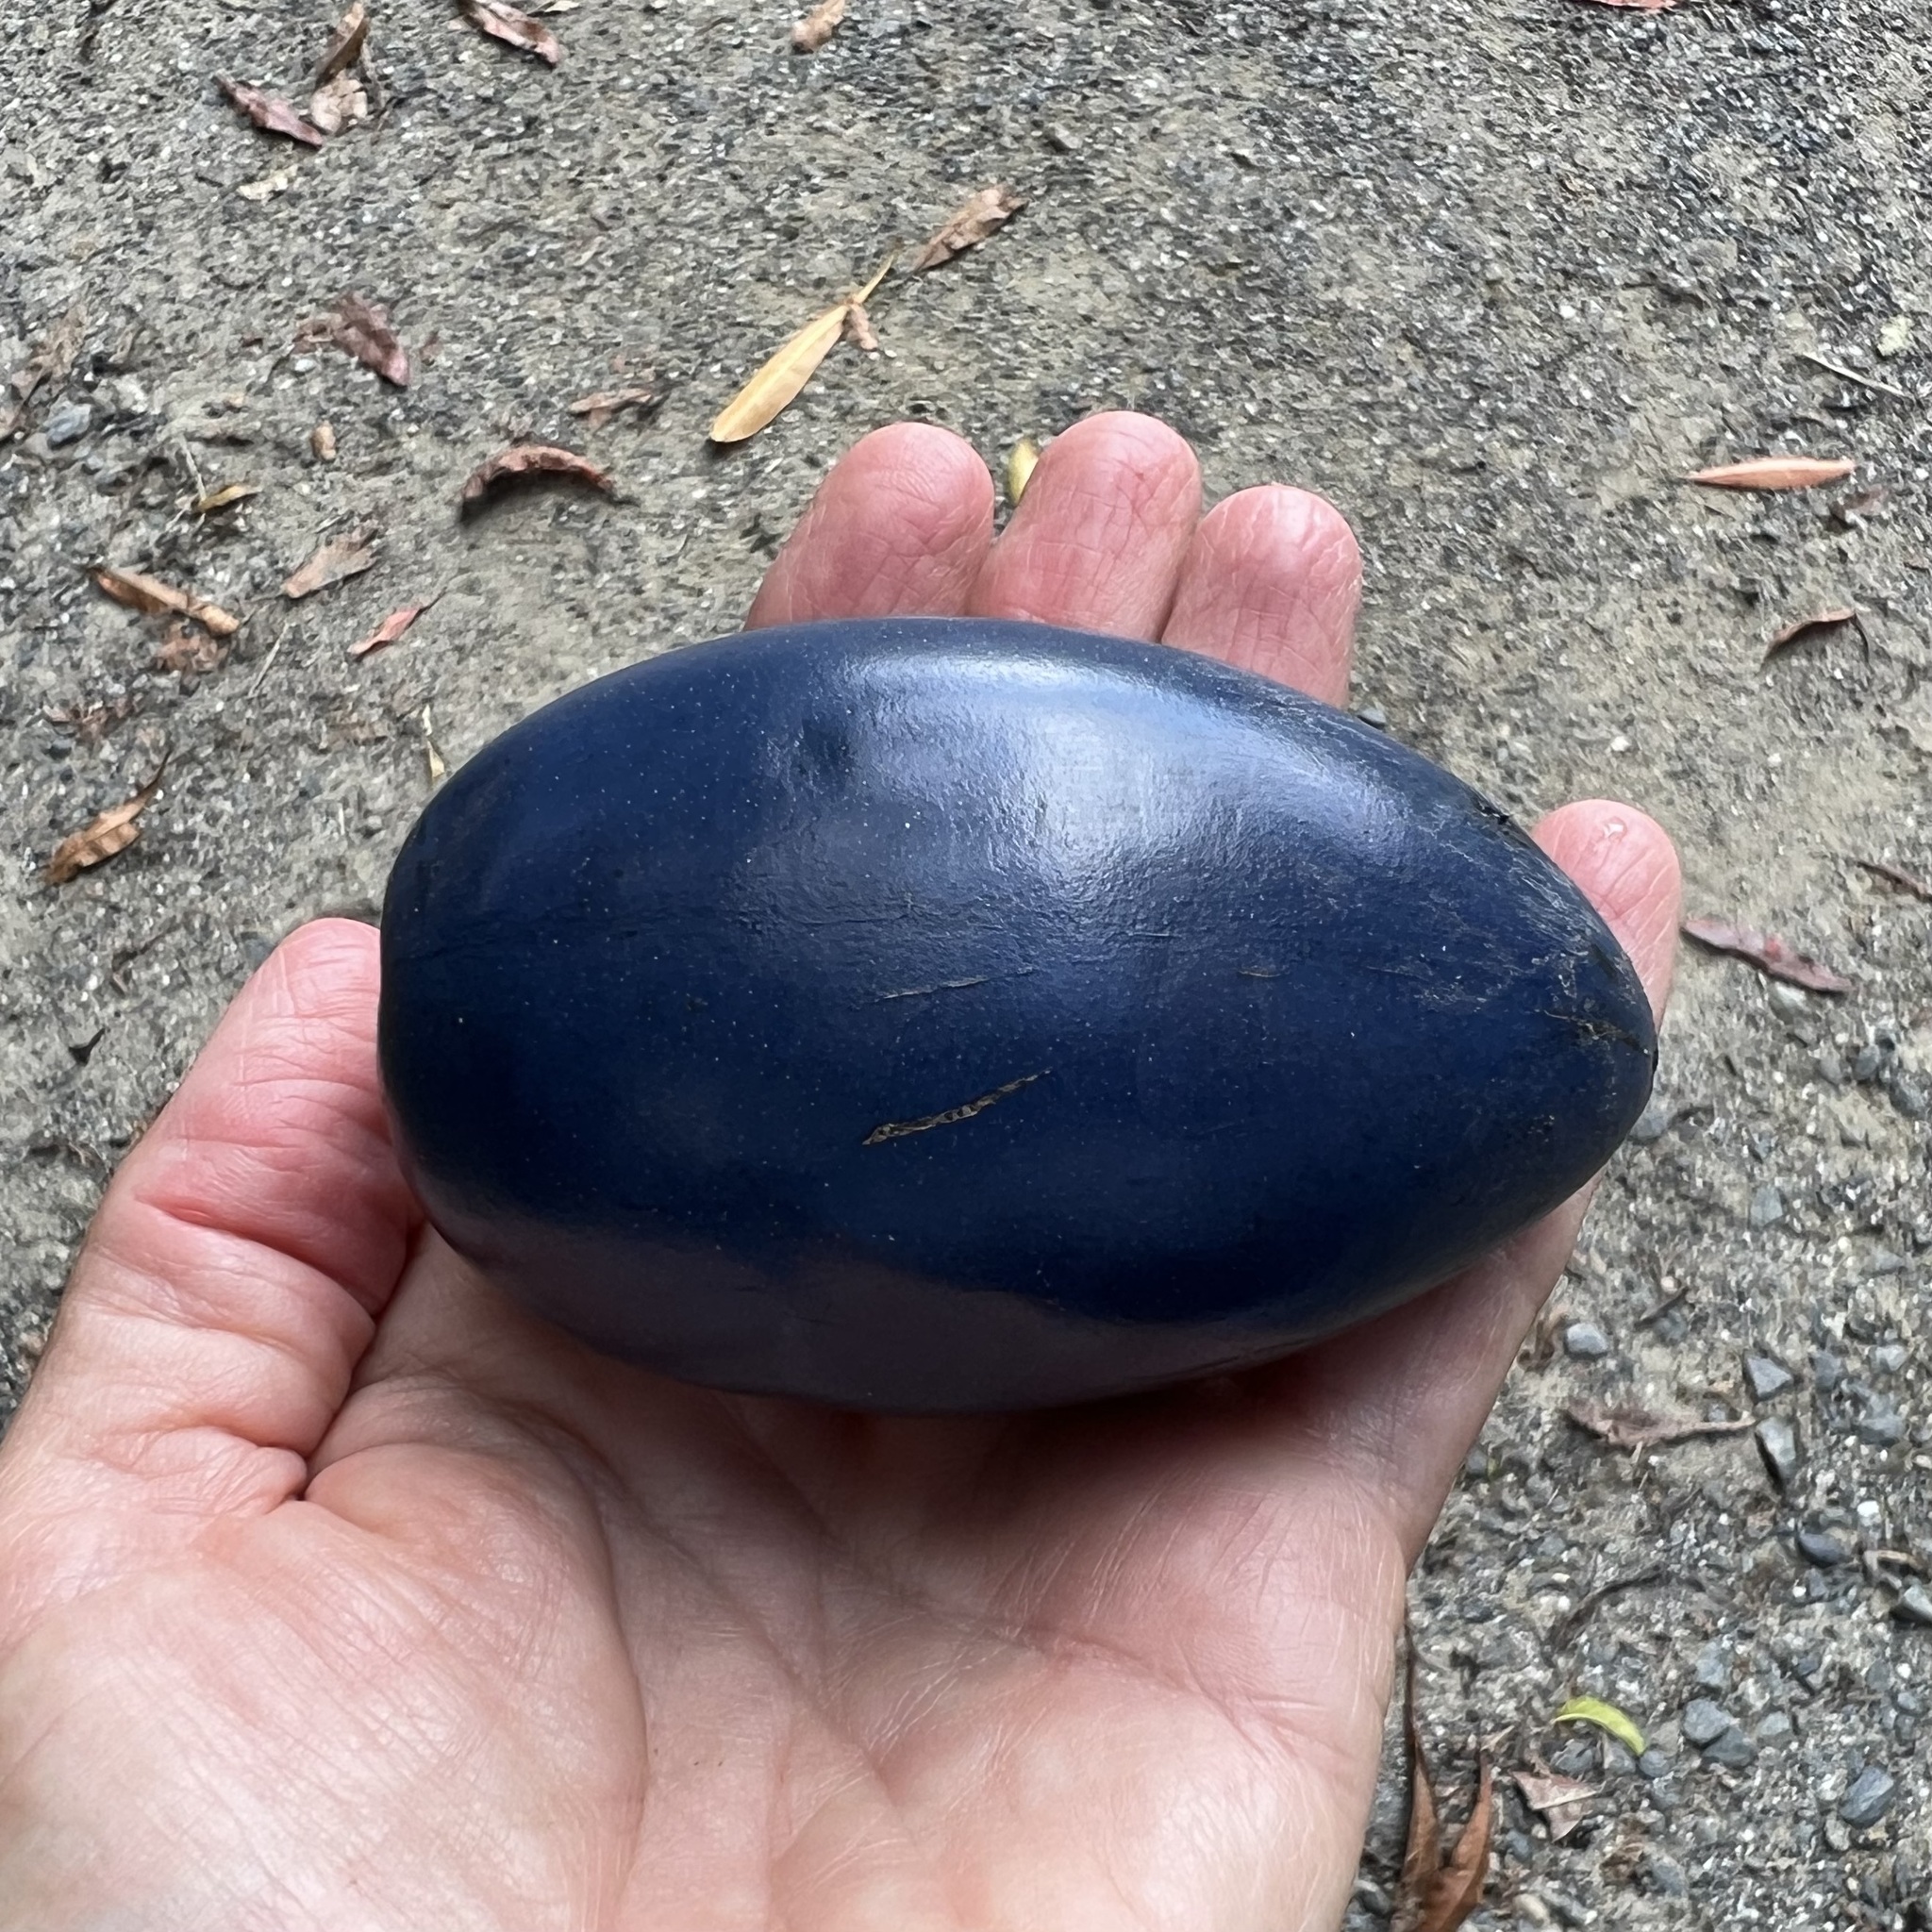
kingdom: Plantae
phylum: Tracheophyta
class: Magnoliopsida
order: Gentianales
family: Apocynaceae
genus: Cerbera
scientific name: Cerbera floribunda
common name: Cassowary plumtree
